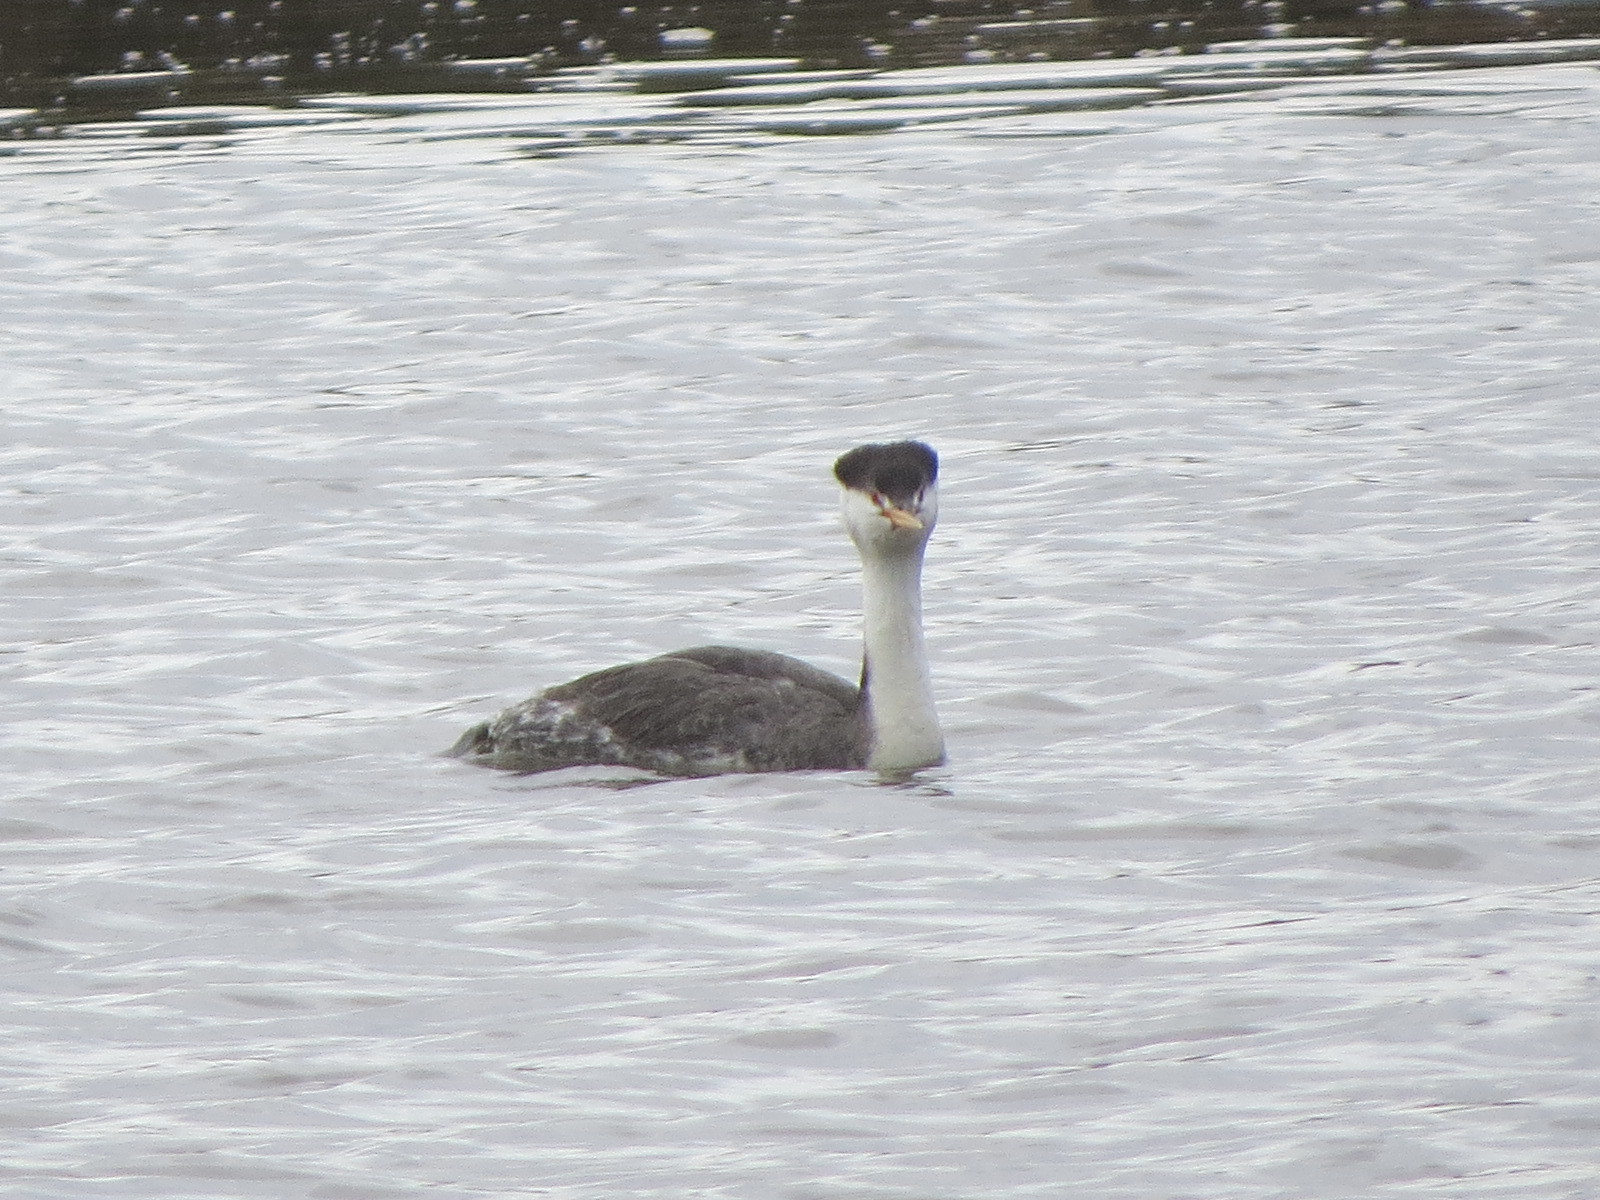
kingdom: Animalia
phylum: Chordata
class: Aves
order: Podicipediformes
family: Podicipedidae
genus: Aechmophorus
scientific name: Aechmophorus clarkii
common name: Clark's grebe
